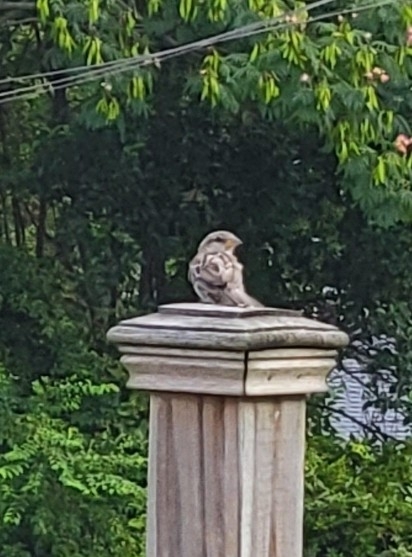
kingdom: Animalia
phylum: Chordata
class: Aves
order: Passeriformes
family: Passeridae
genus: Passer
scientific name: Passer domesticus
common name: House sparrow
